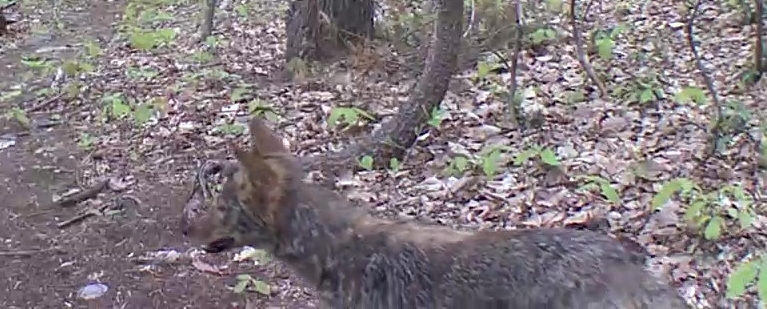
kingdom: Animalia
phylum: Chordata
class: Mammalia
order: Carnivora
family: Canidae
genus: Canis
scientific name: Canis latrans
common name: Coyote
